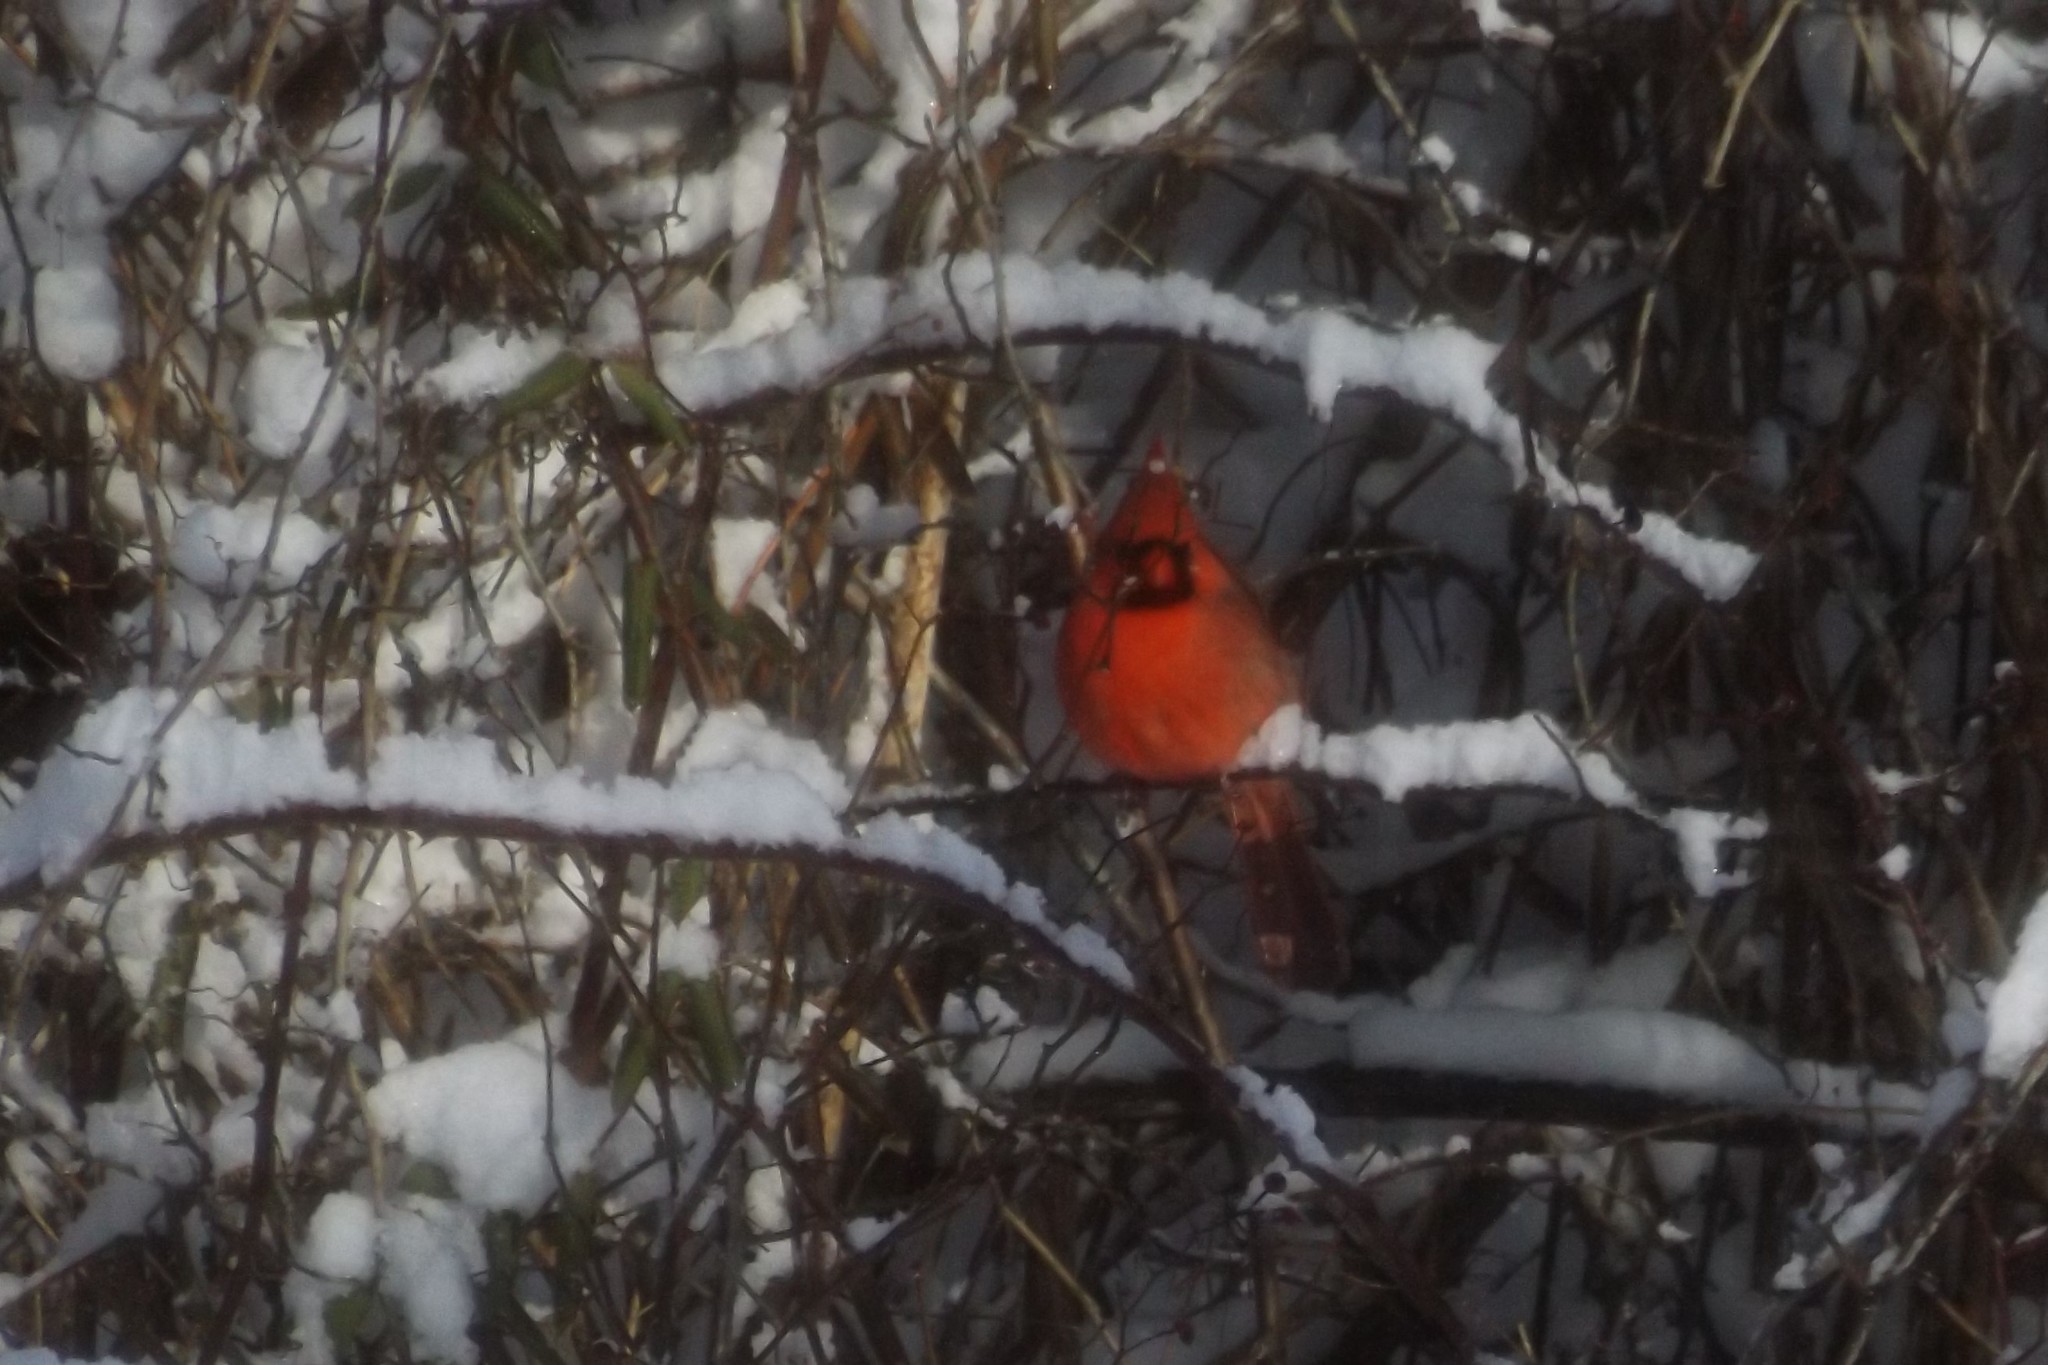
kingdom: Animalia
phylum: Chordata
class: Aves
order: Passeriformes
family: Cardinalidae
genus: Cardinalis
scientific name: Cardinalis cardinalis
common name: Northern cardinal
